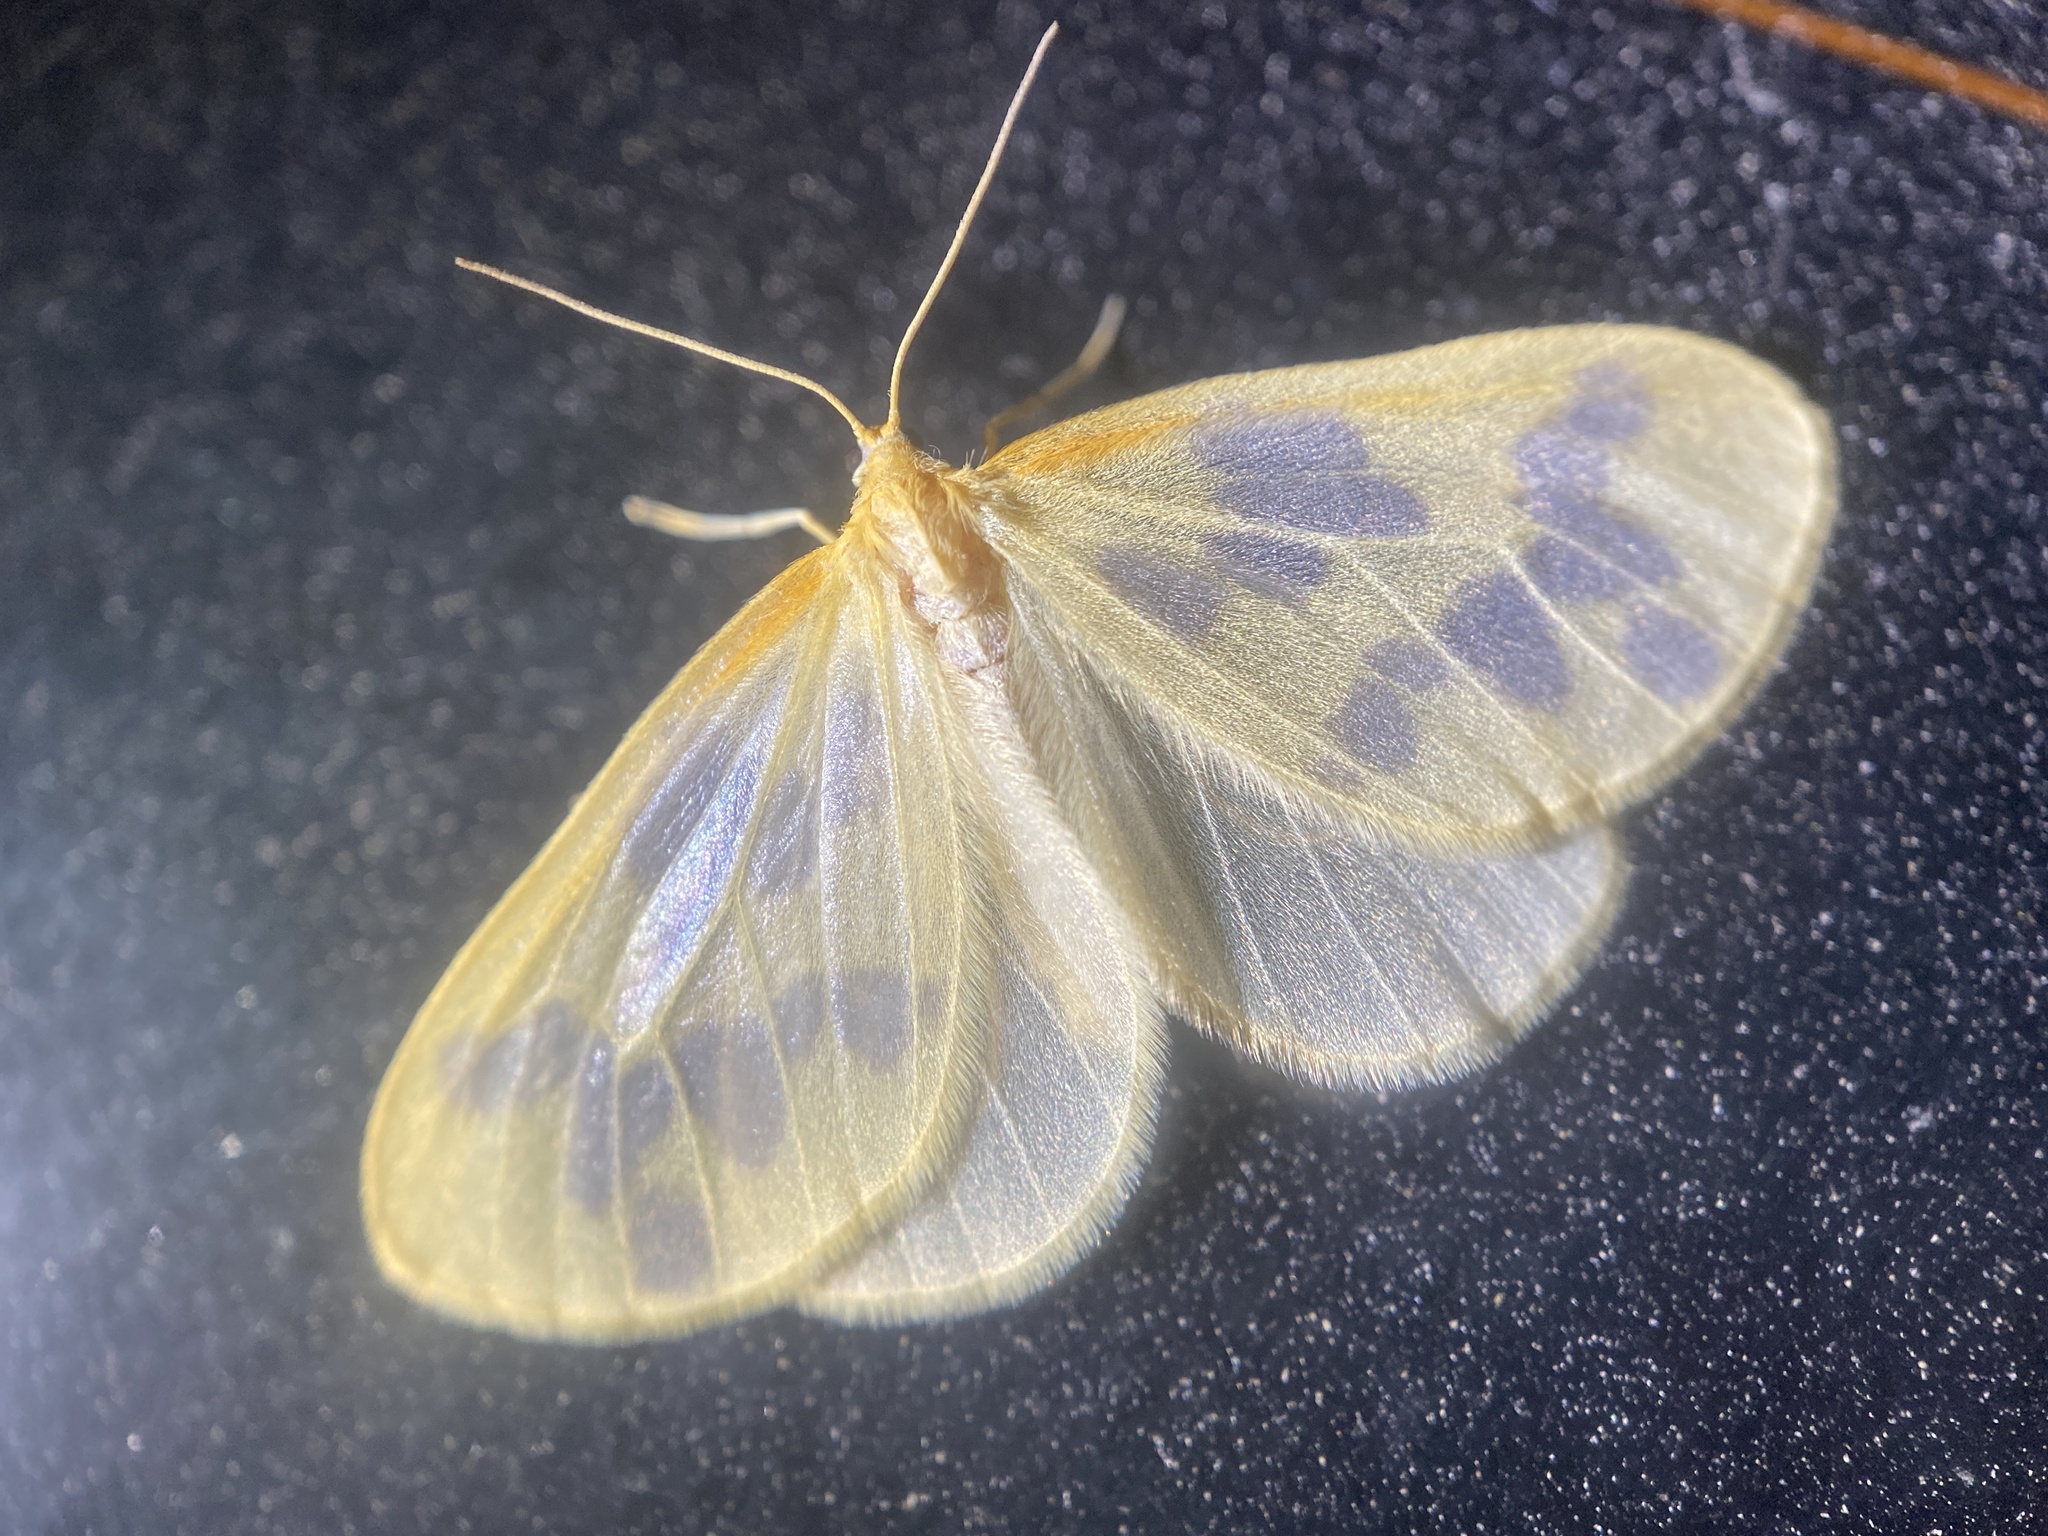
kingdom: Animalia
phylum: Arthropoda
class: Insecta
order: Lepidoptera
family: Geometridae
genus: Eubaphe
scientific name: Eubaphe mendica
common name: Beggar
